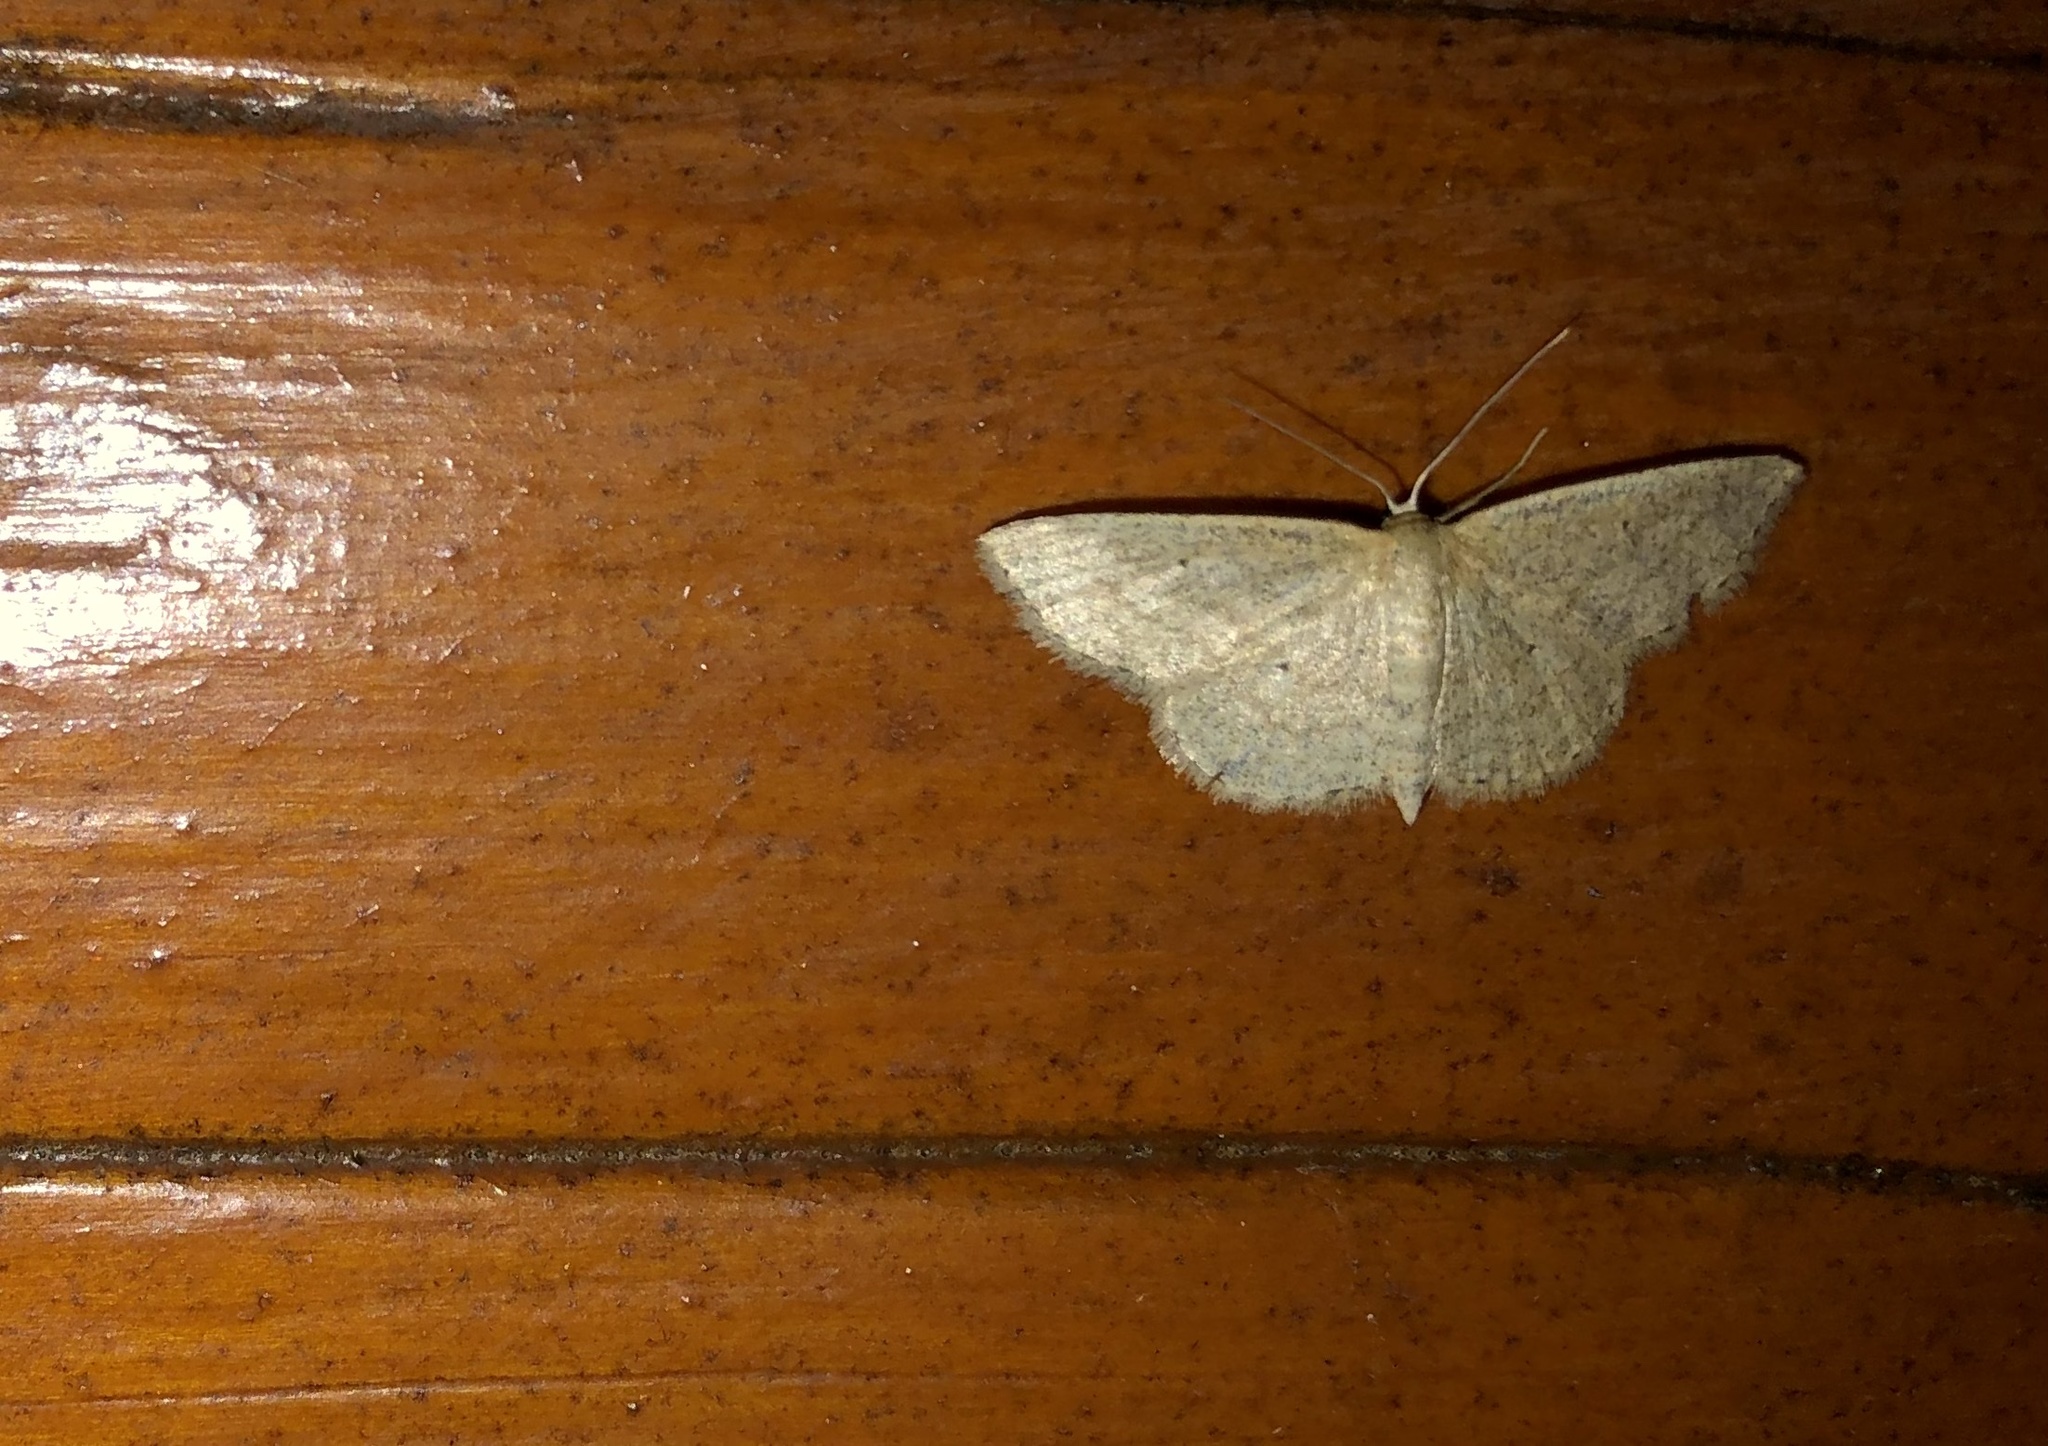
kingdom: Animalia
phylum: Arthropoda
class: Insecta
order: Lepidoptera
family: Geometridae
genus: Scopula
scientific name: Scopula inductata
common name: Soft-lined wave
